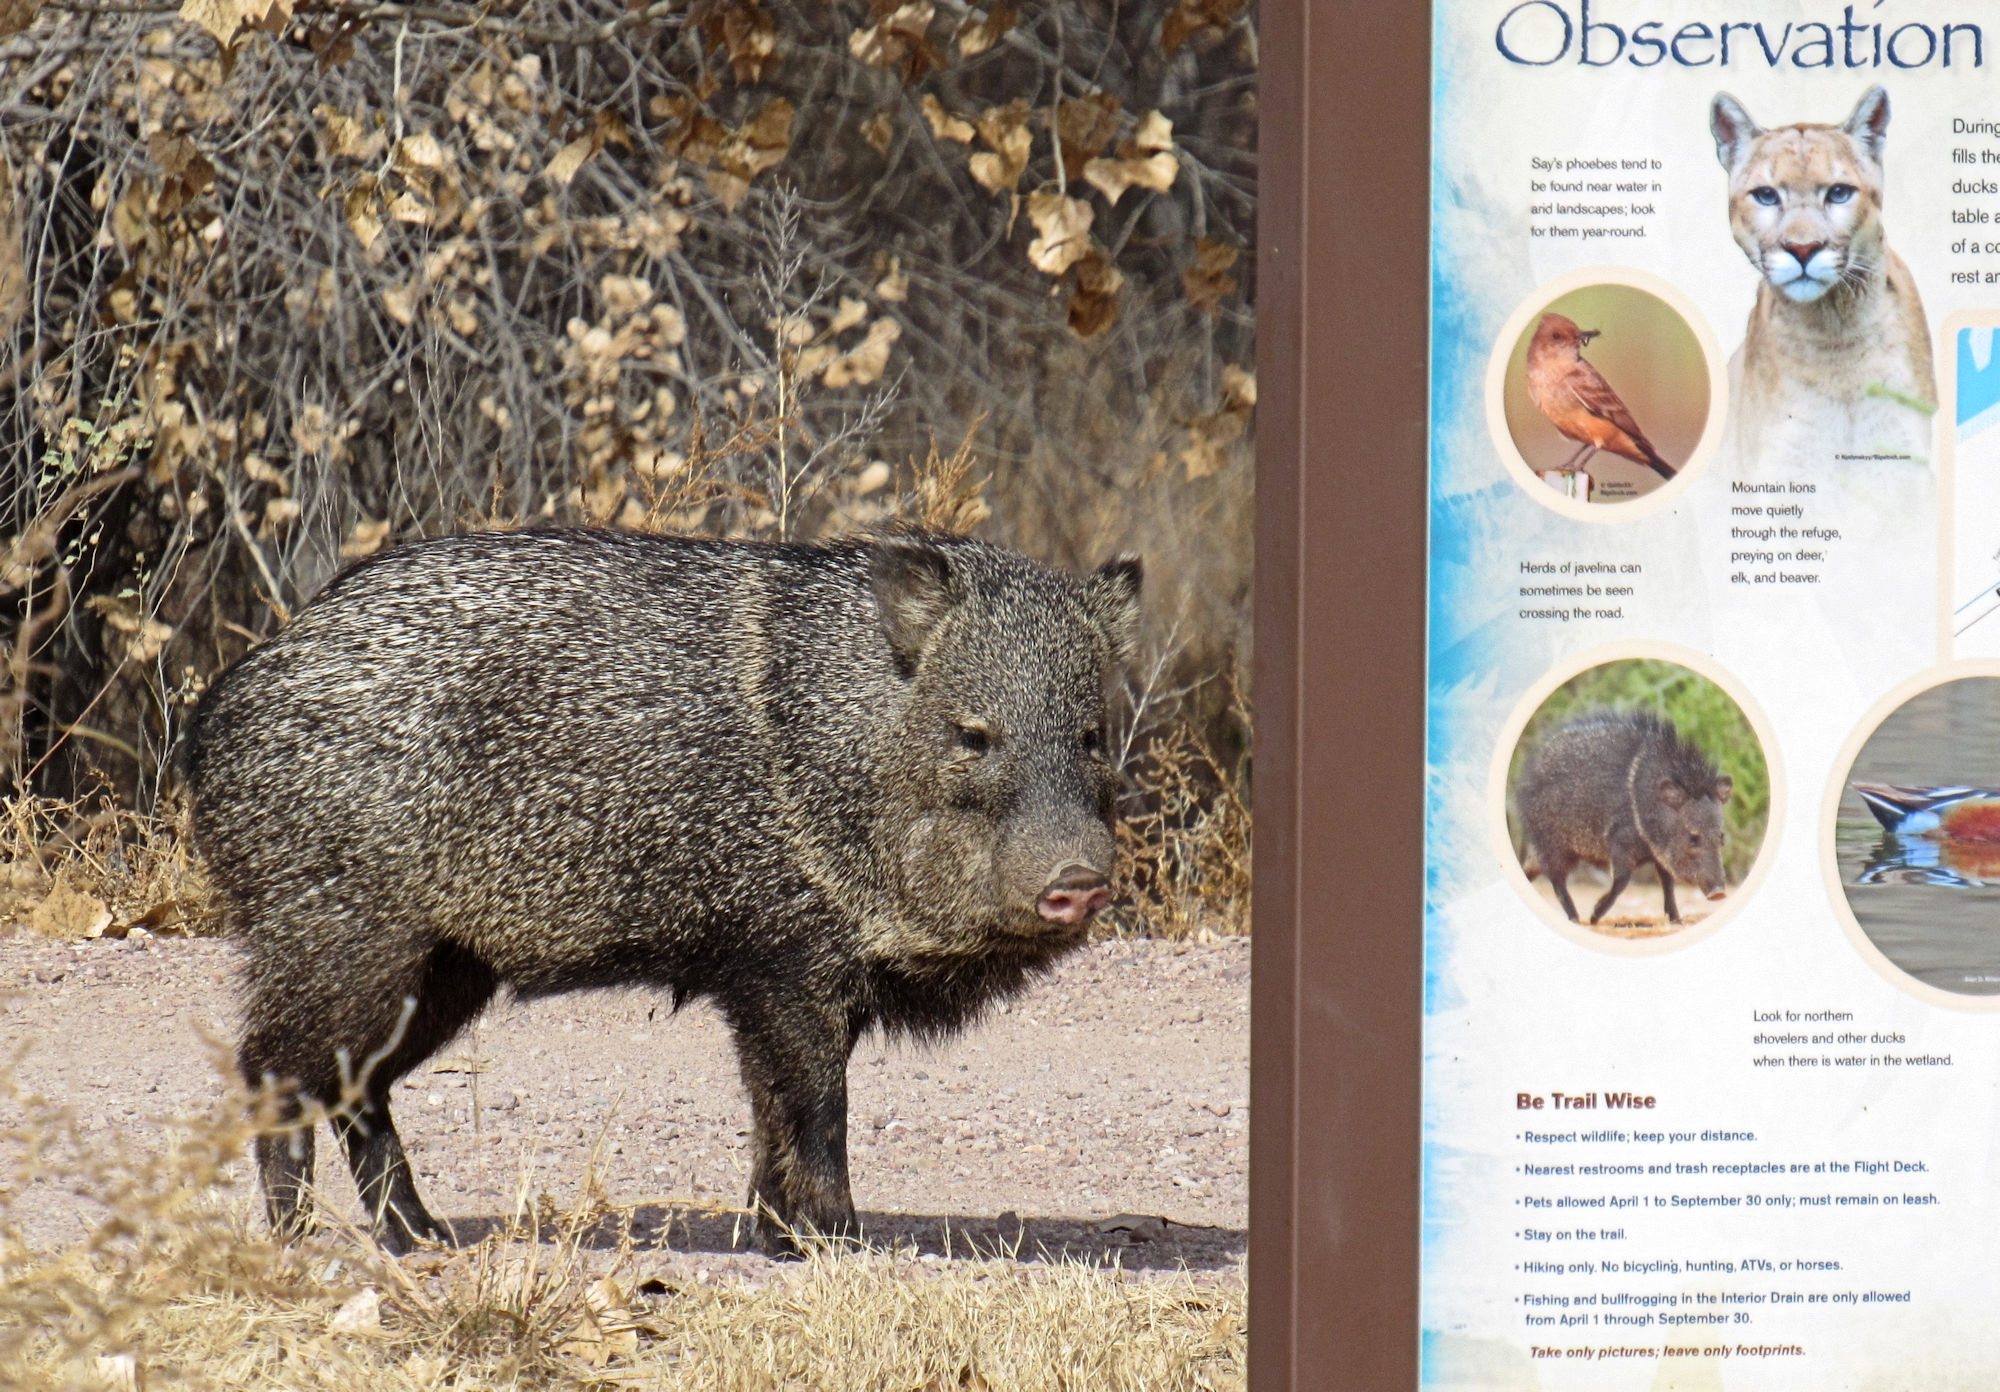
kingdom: Animalia
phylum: Chordata
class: Mammalia
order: Artiodactyla
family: Tayassuidae
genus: Pecari
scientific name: Pecari tajacu
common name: Collared peccary
